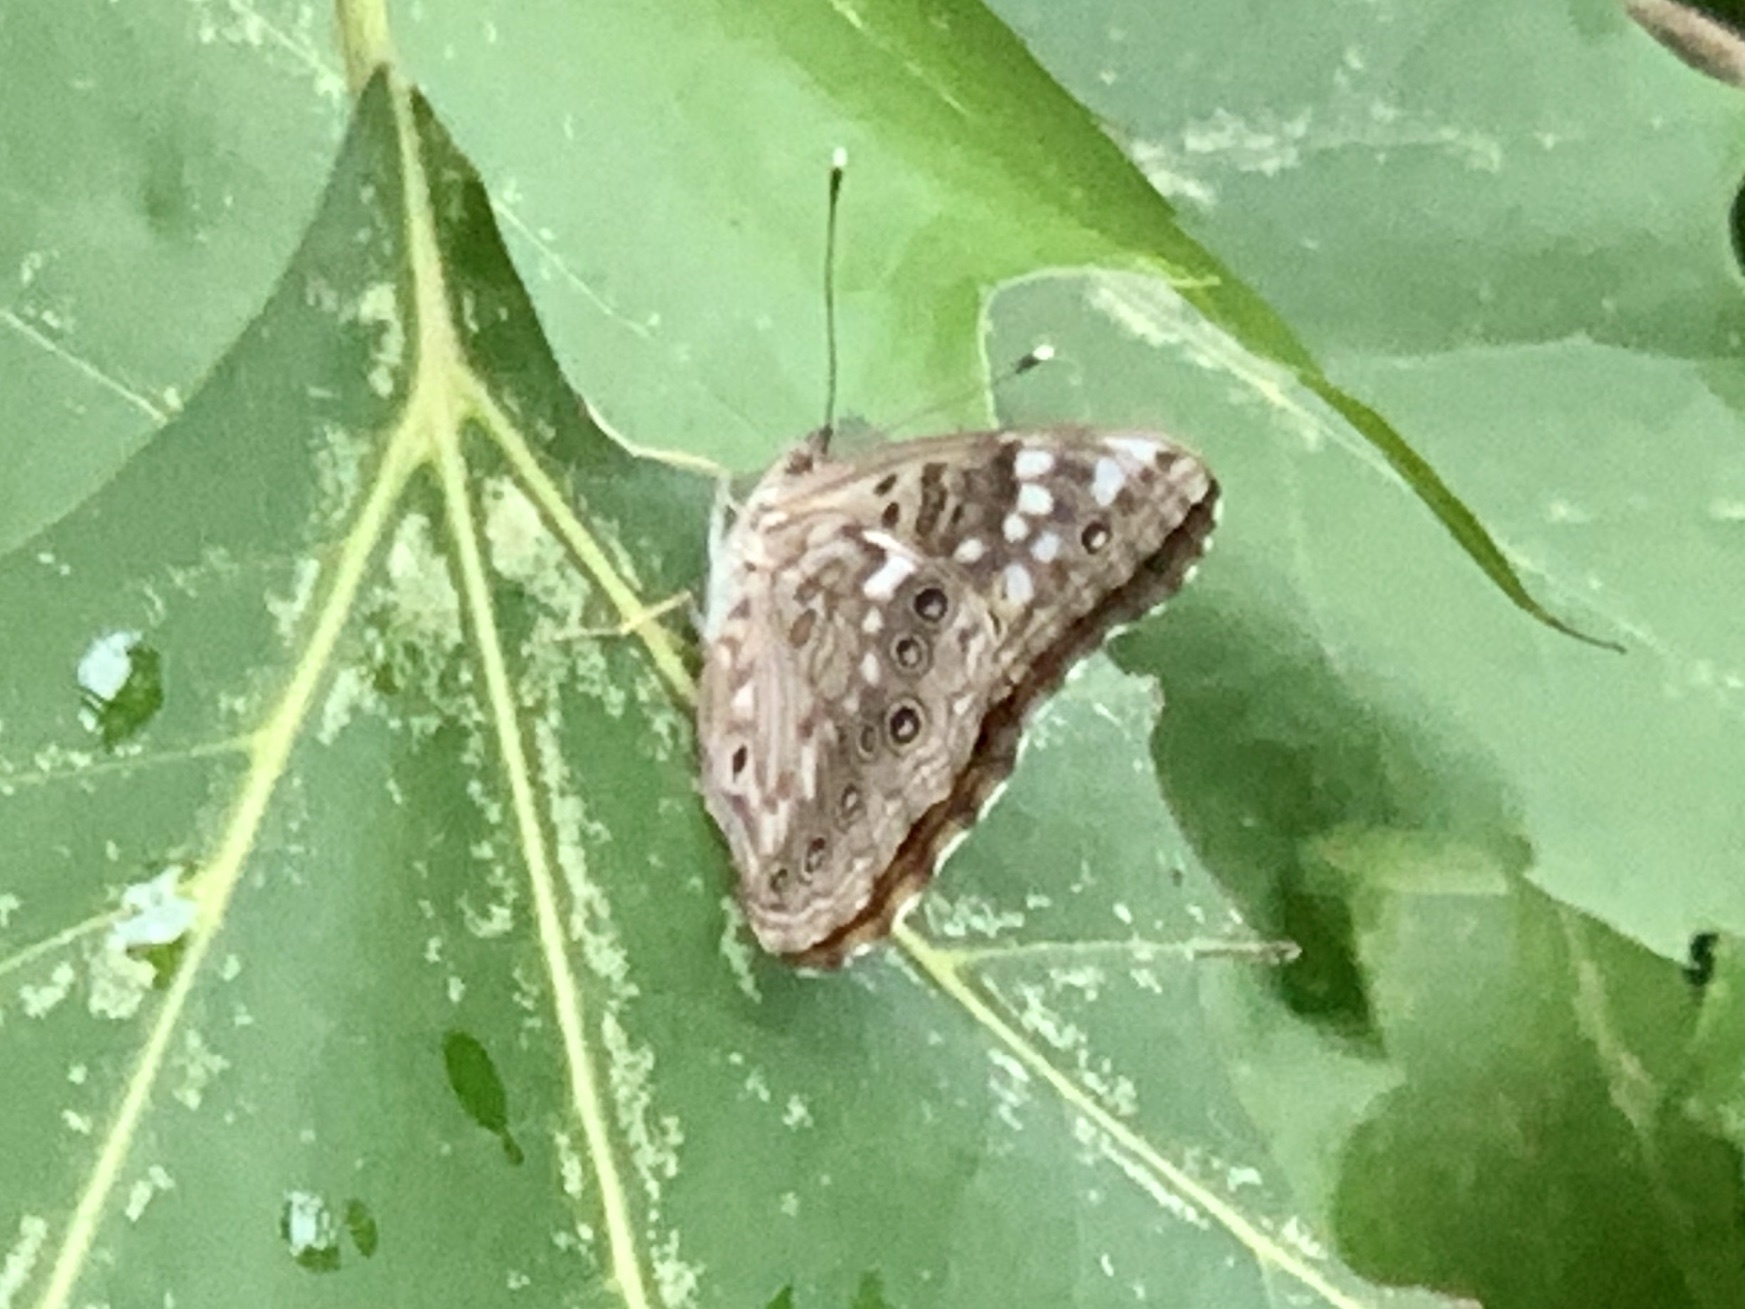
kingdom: Animalia
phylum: Arthropoda
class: Insecta
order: Lepidoptera
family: Nymphalidae
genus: Asterocampa
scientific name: Asterocampa celtis
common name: Hackberry emperor
